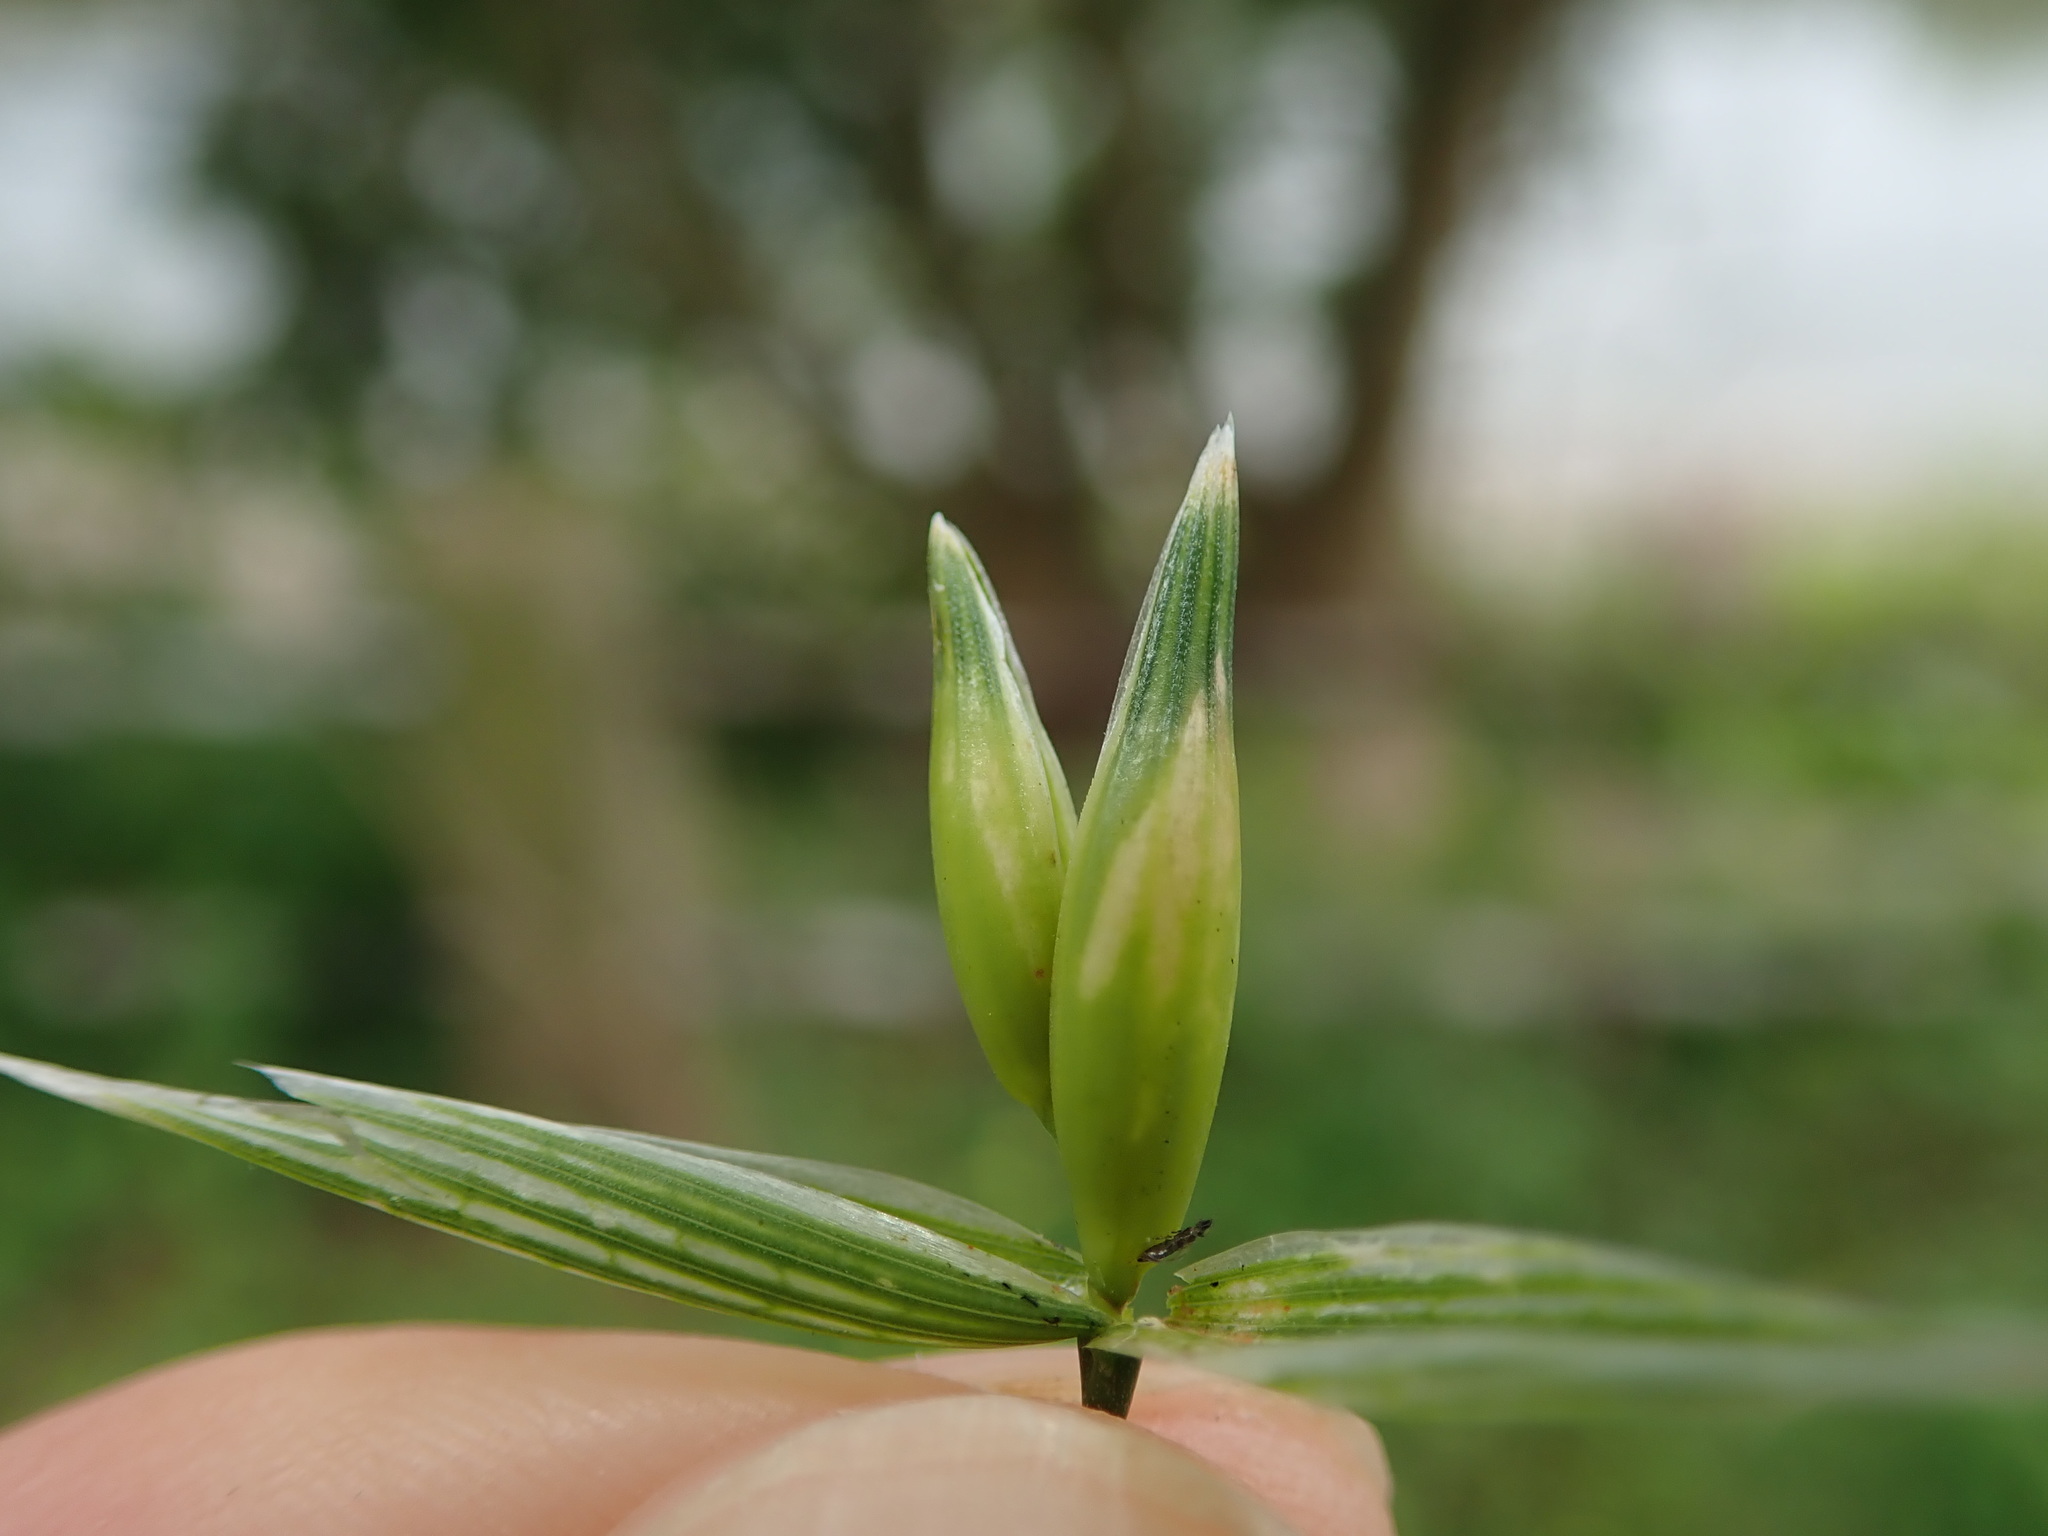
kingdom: Plantae
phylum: Tracheophyta
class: Liliopsida
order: Poales
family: Poaceae
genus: Avena
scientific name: Avena sativa
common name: Oat
